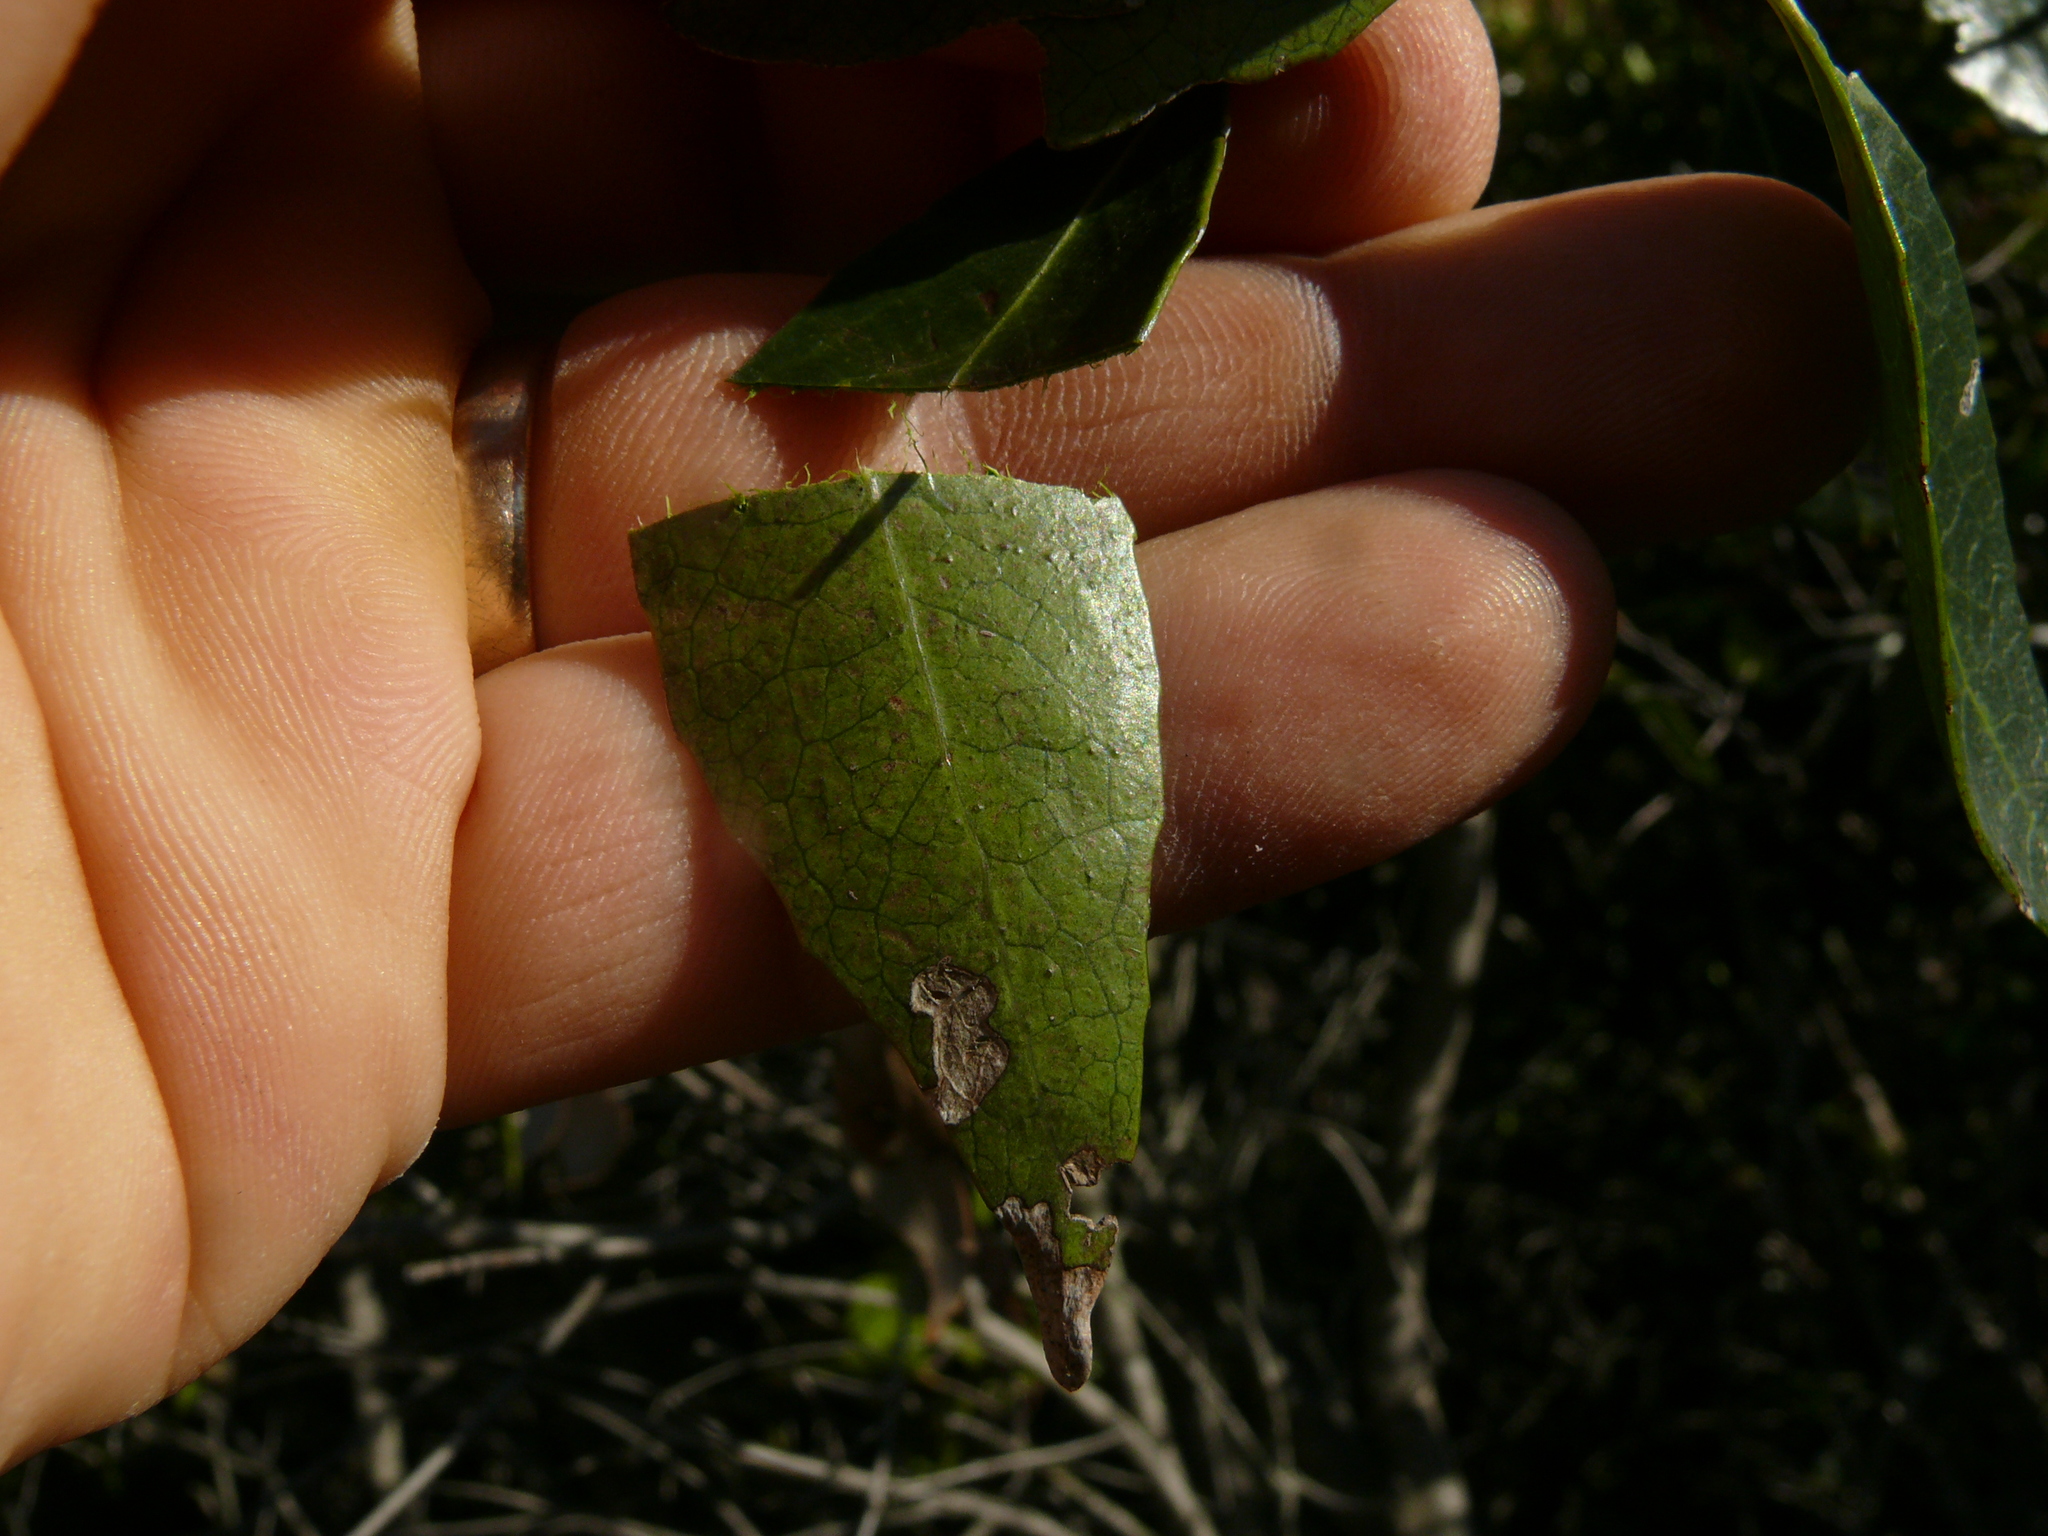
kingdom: Plantae
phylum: Tracheophyta
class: Magnoliopsida
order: Celastrales
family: Celastraceae
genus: Cassine
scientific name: Cassine peragua
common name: Cape saffron
